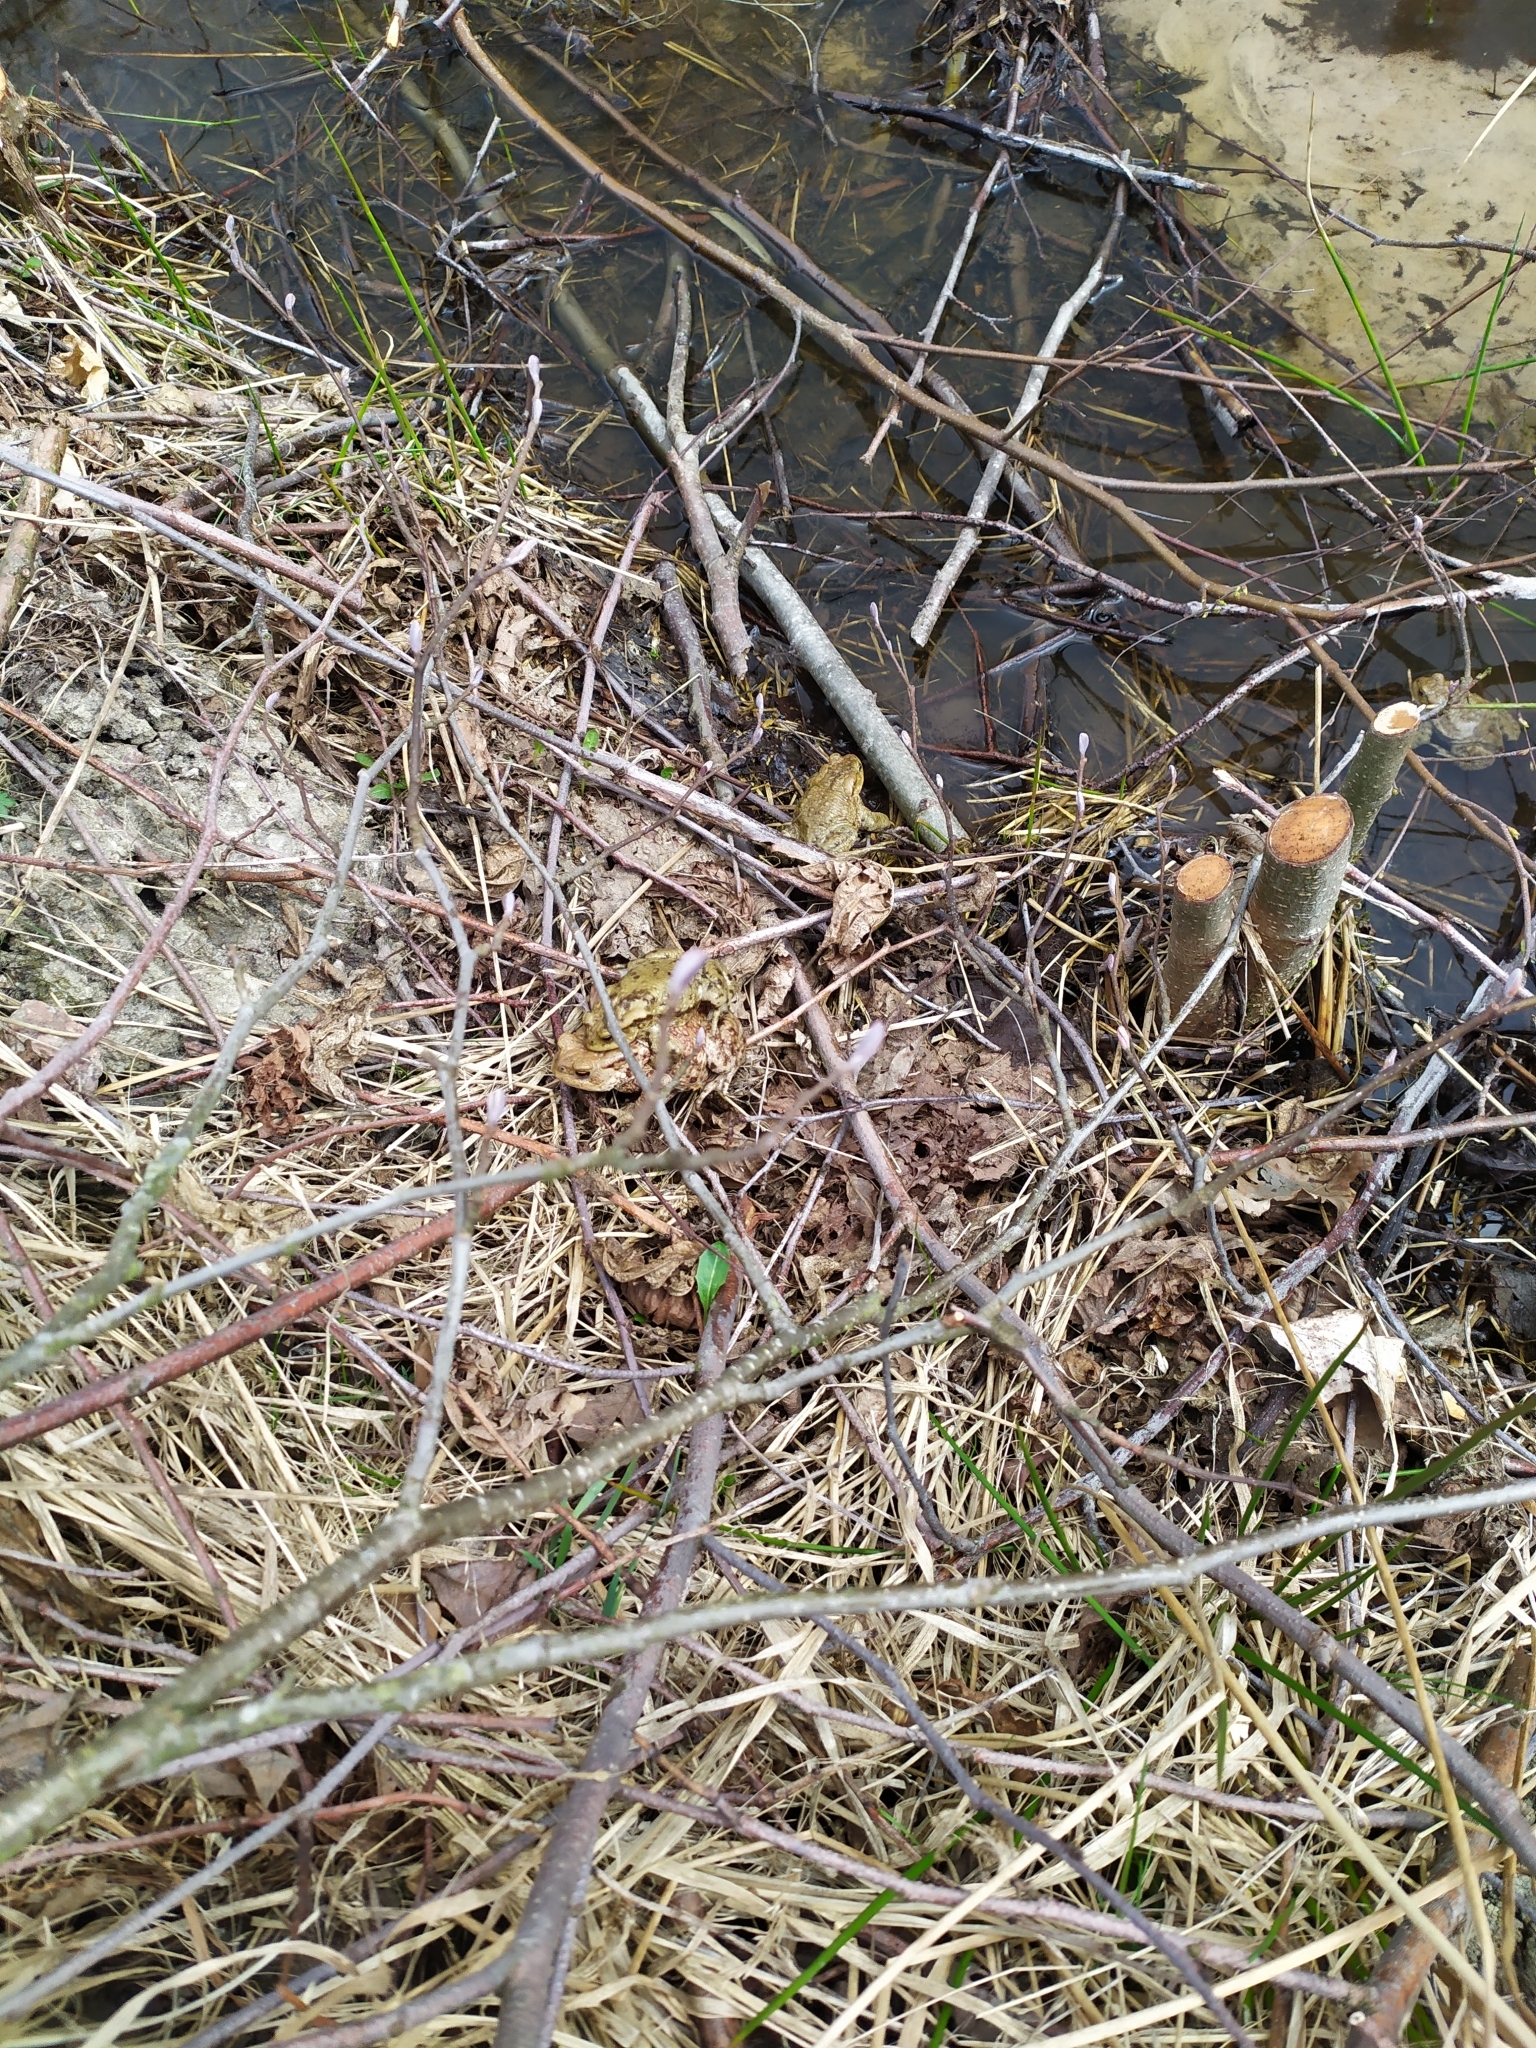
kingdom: Animalia
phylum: Chordata
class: Amphibia
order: Anura
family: Bufonidae
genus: Bufo
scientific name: Bufo bufo
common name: Common toad
